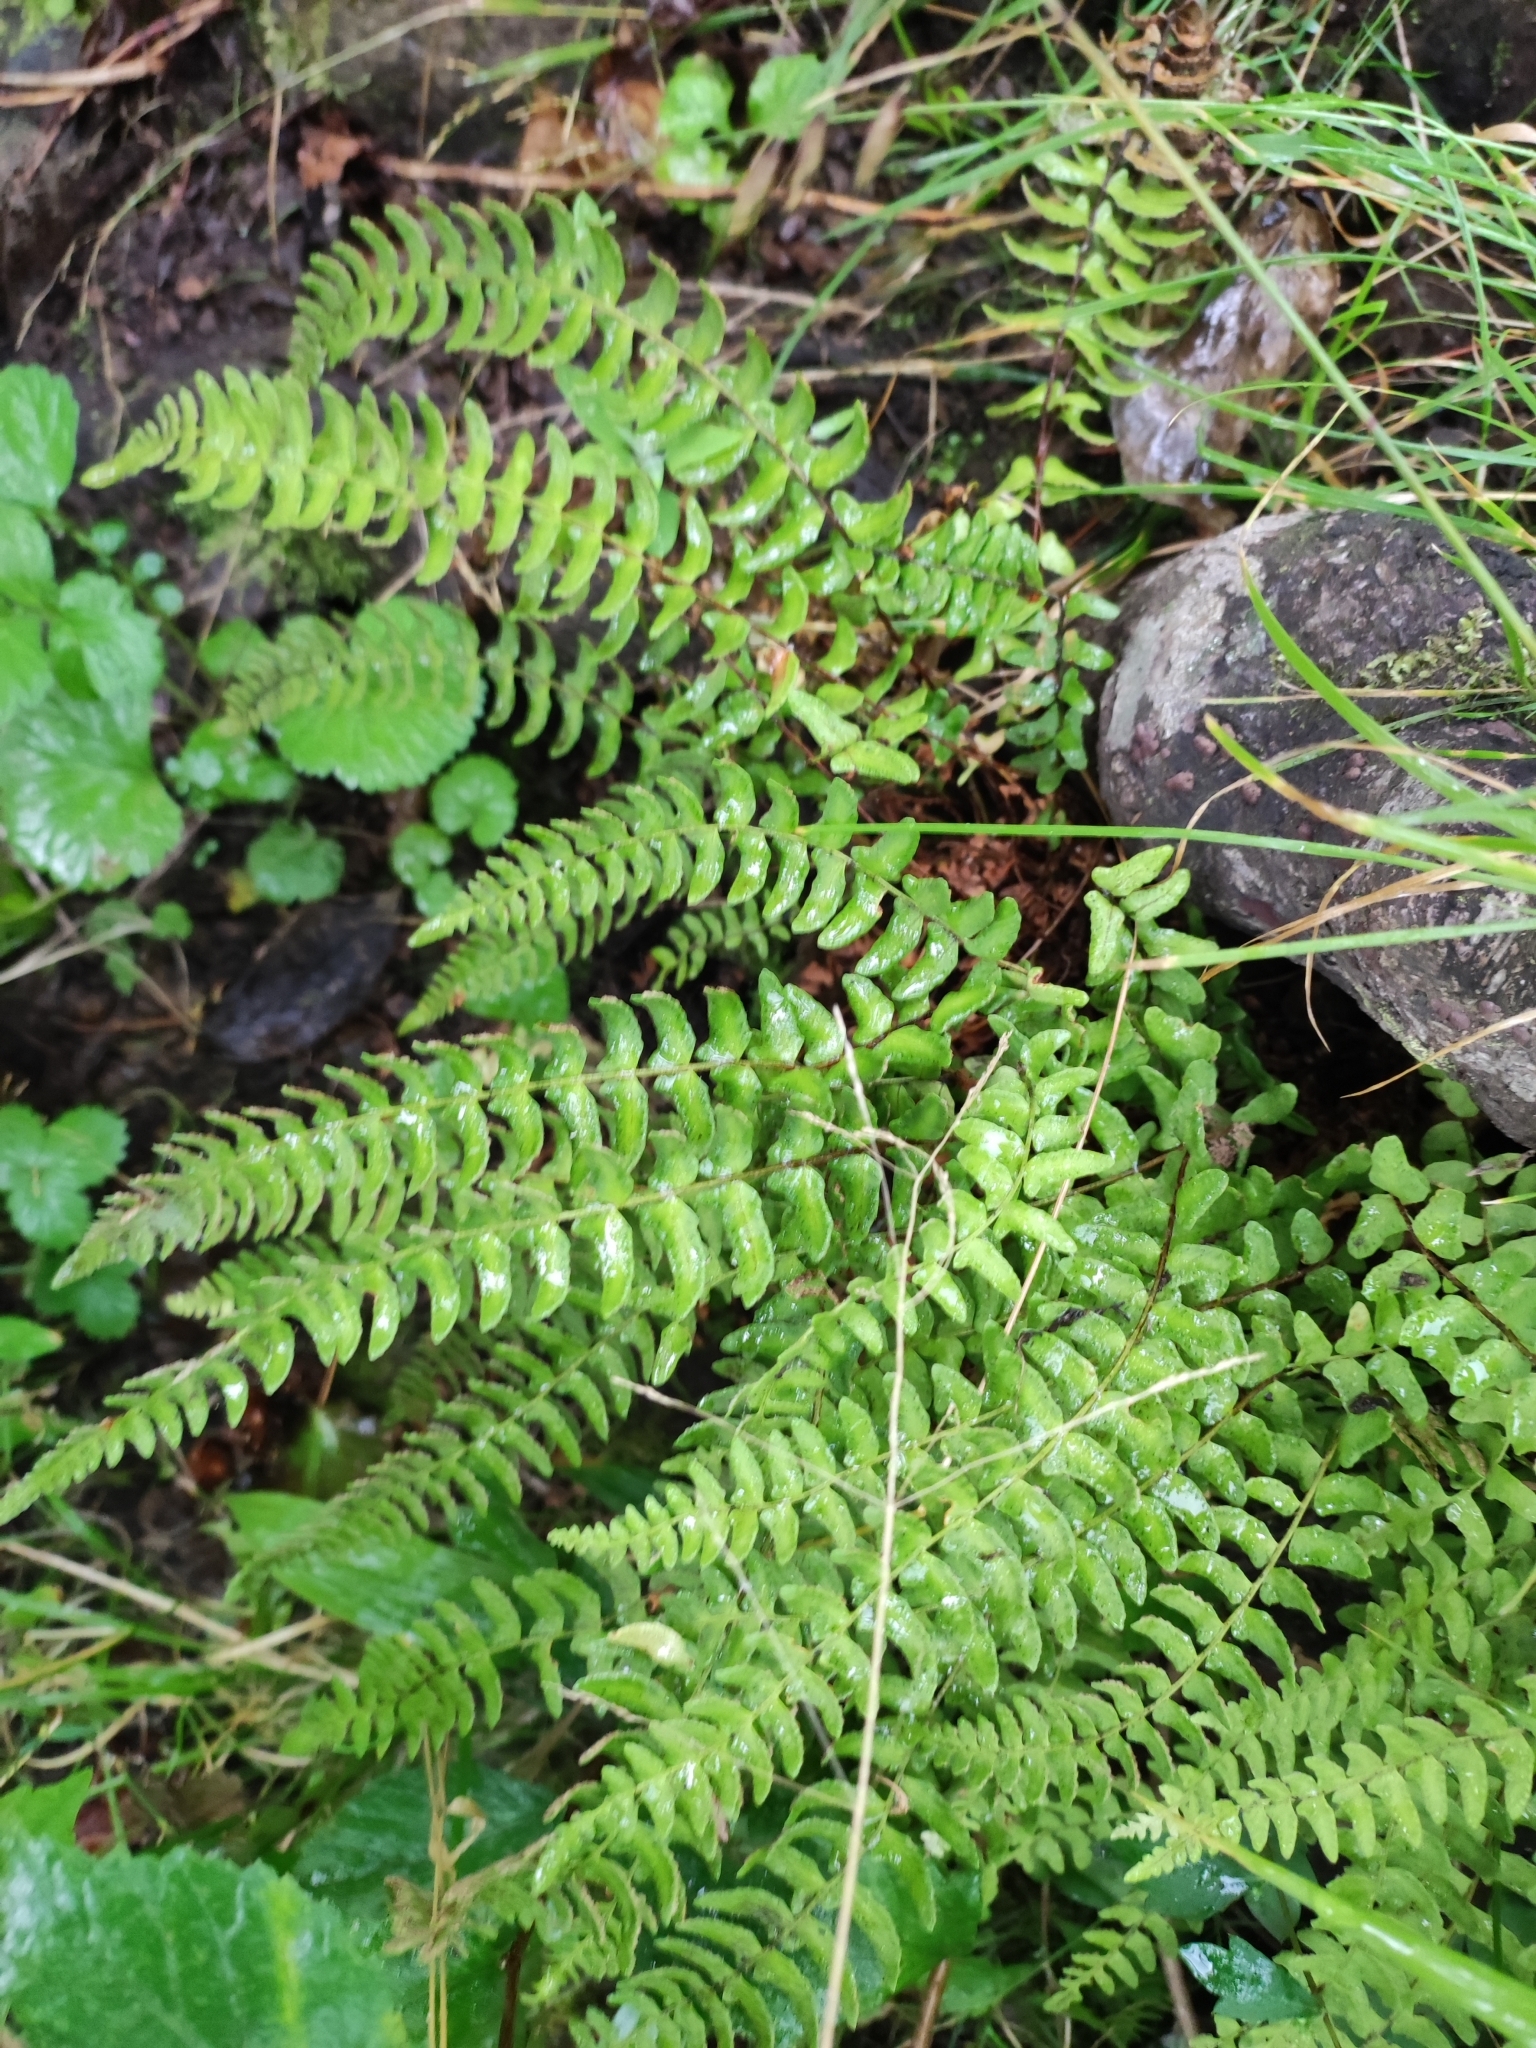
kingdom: Plantae
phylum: Tracheophyta
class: Polypodiopsida
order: Polypodiales
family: Woodsiaceae
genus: Woodsia
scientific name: Woodsia polystichoides
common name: Holly fern woodsia
